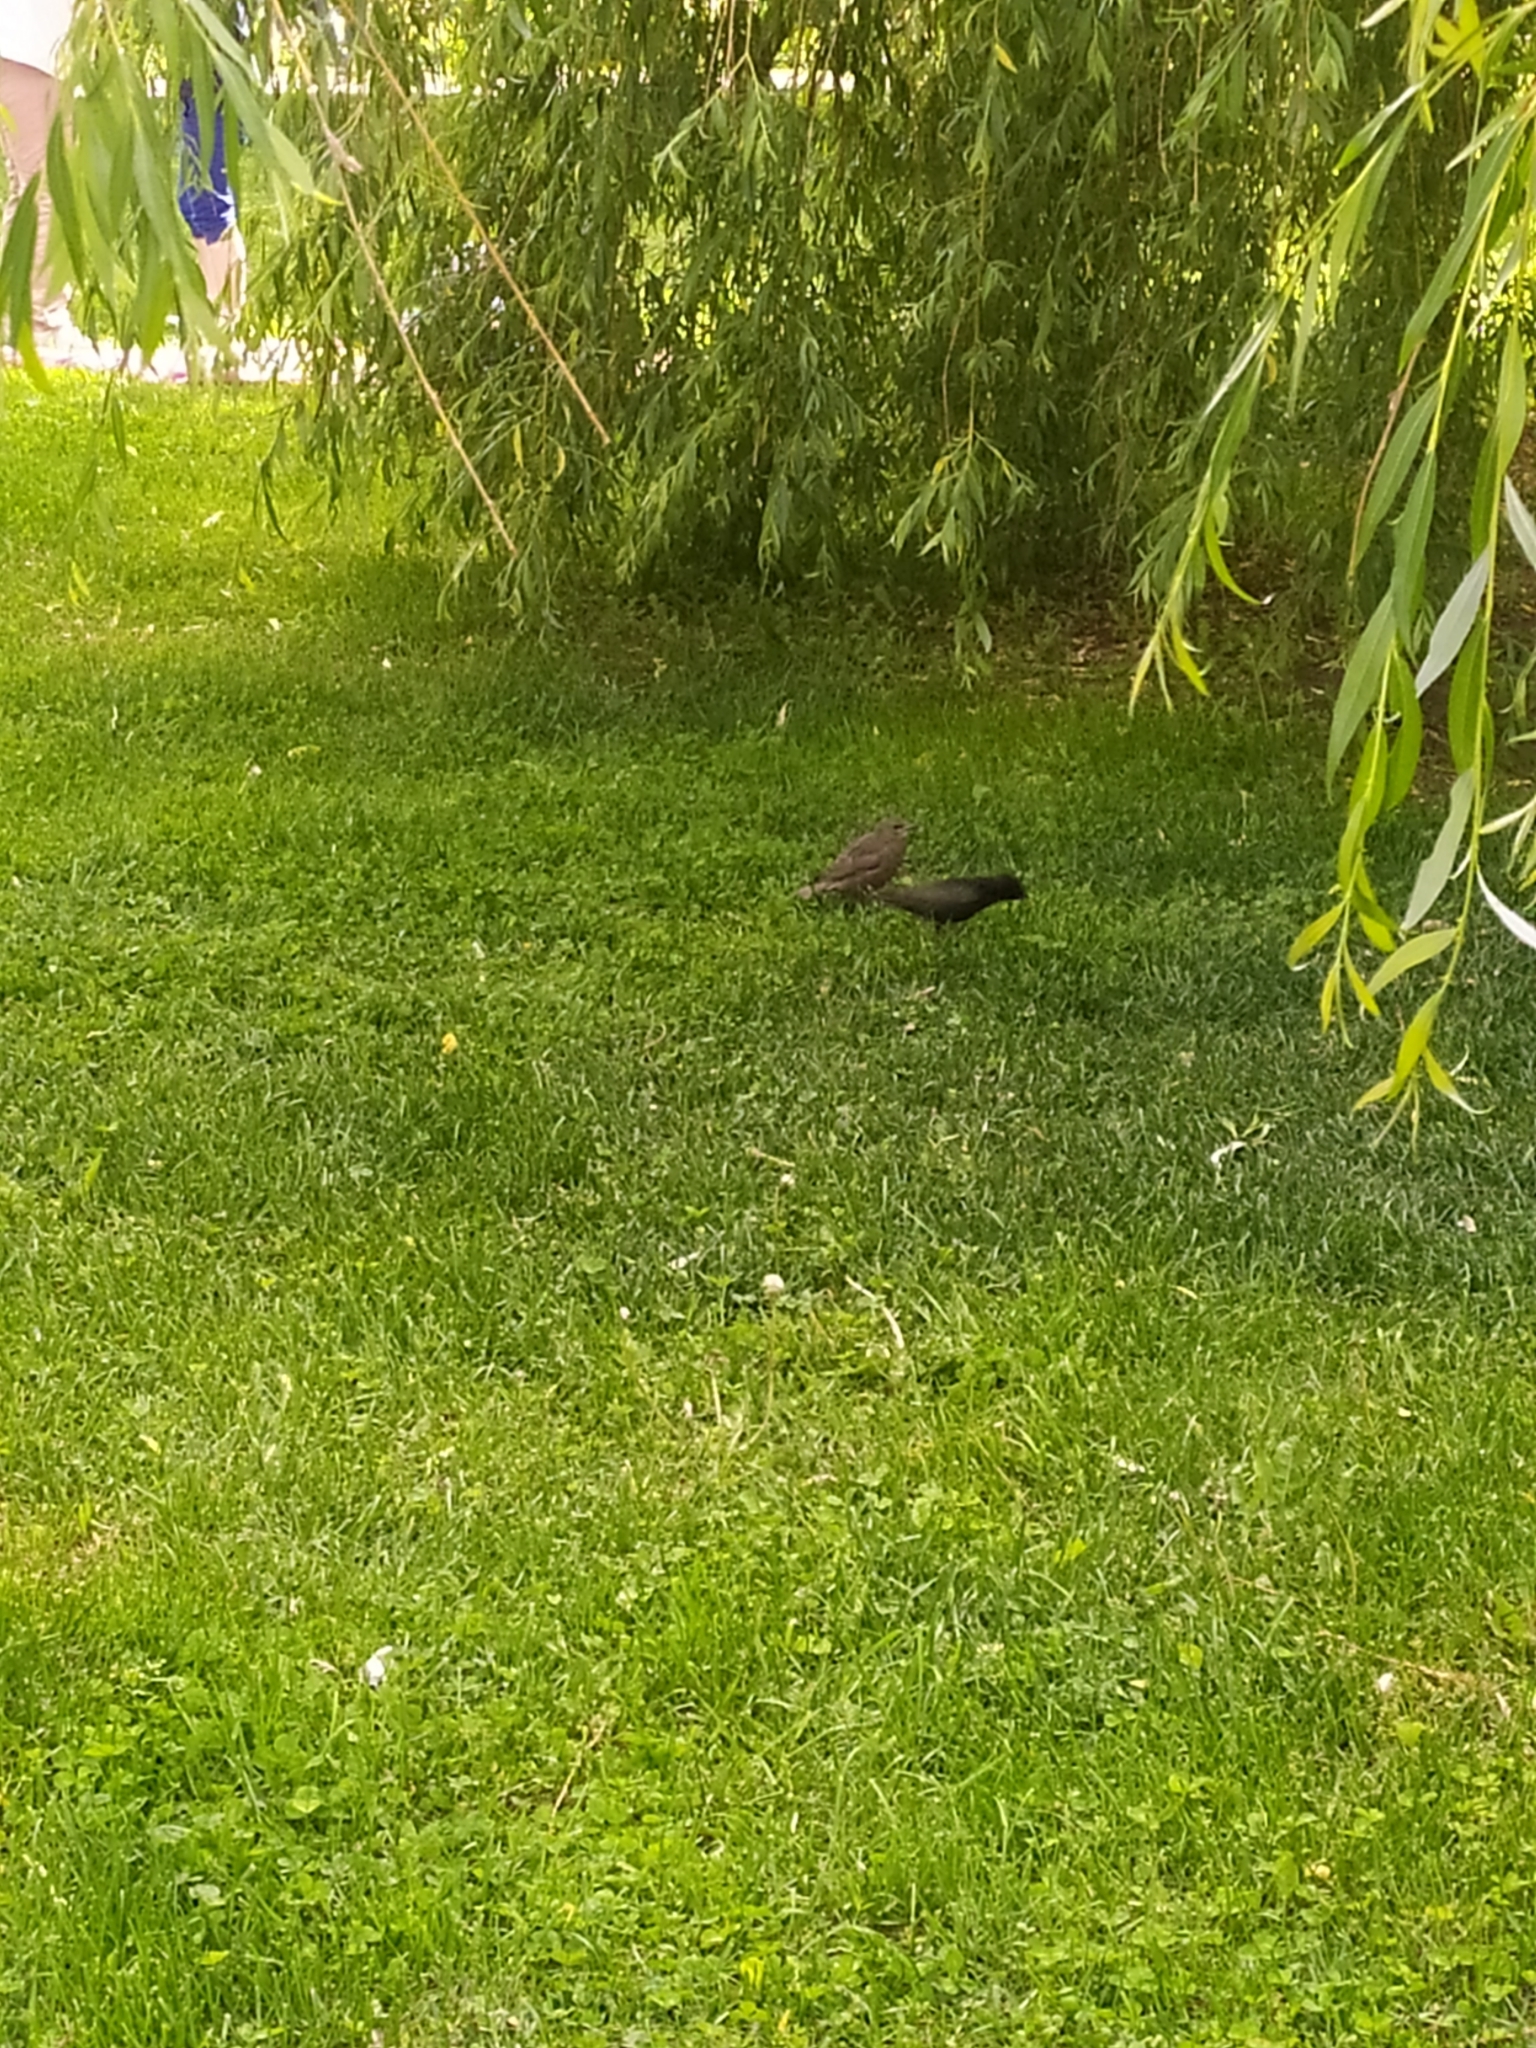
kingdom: Animalia
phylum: Chordata
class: Aves
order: Passeriformes
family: Sturnidae
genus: Sturnus
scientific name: Sturnus vulgaris
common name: Common starling
